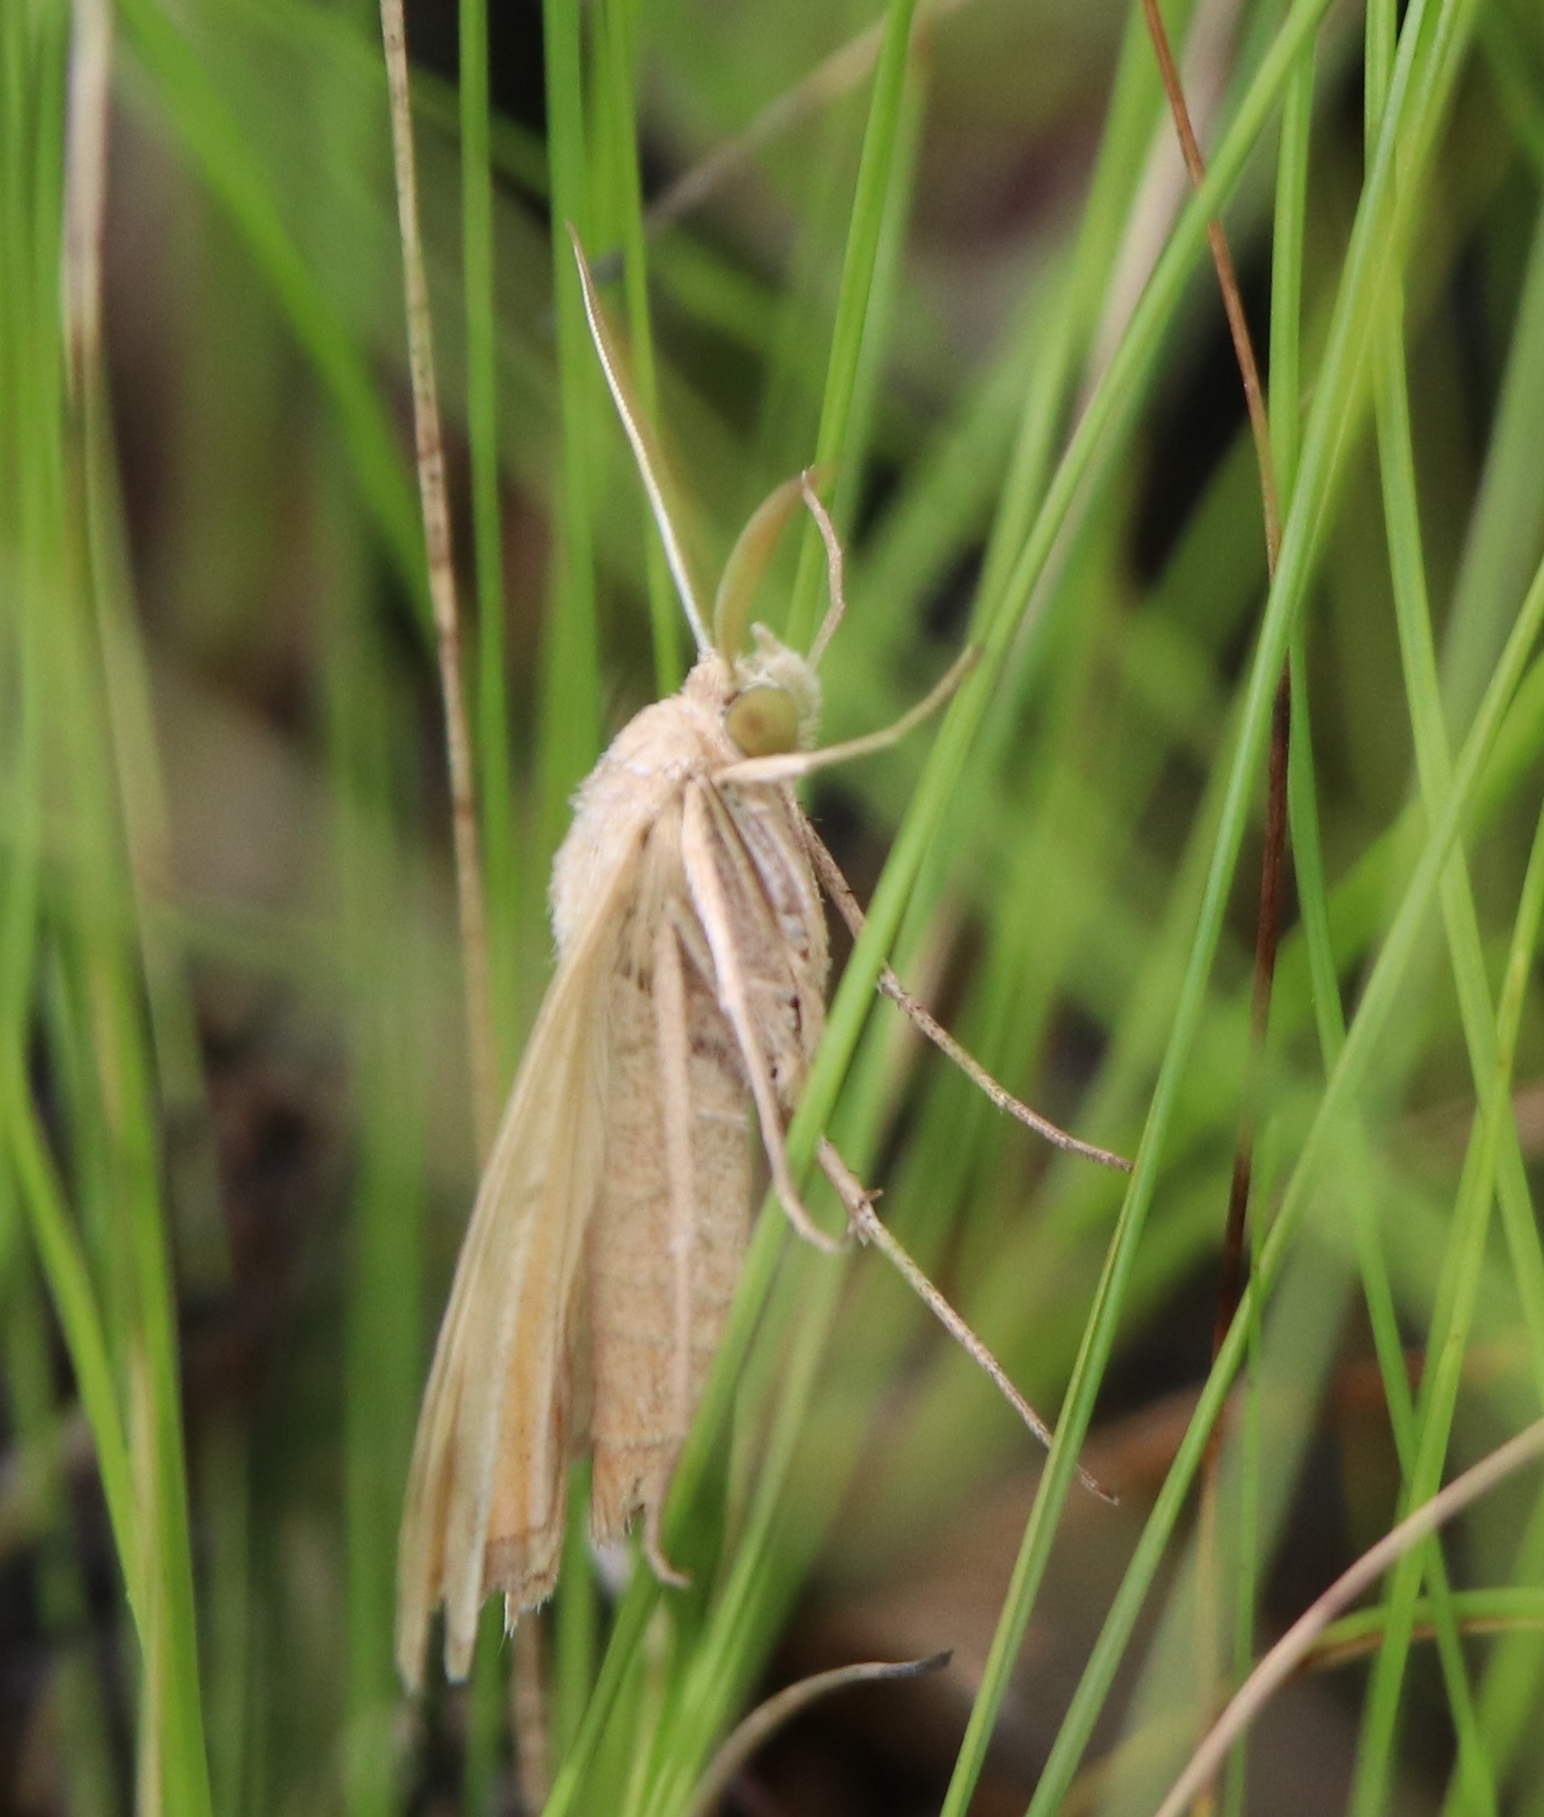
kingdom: Animalia
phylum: Arthropoda
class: Insecta
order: Lepidoptera
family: Erebidae
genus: Caenurgia
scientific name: Caenurgia chloropha
